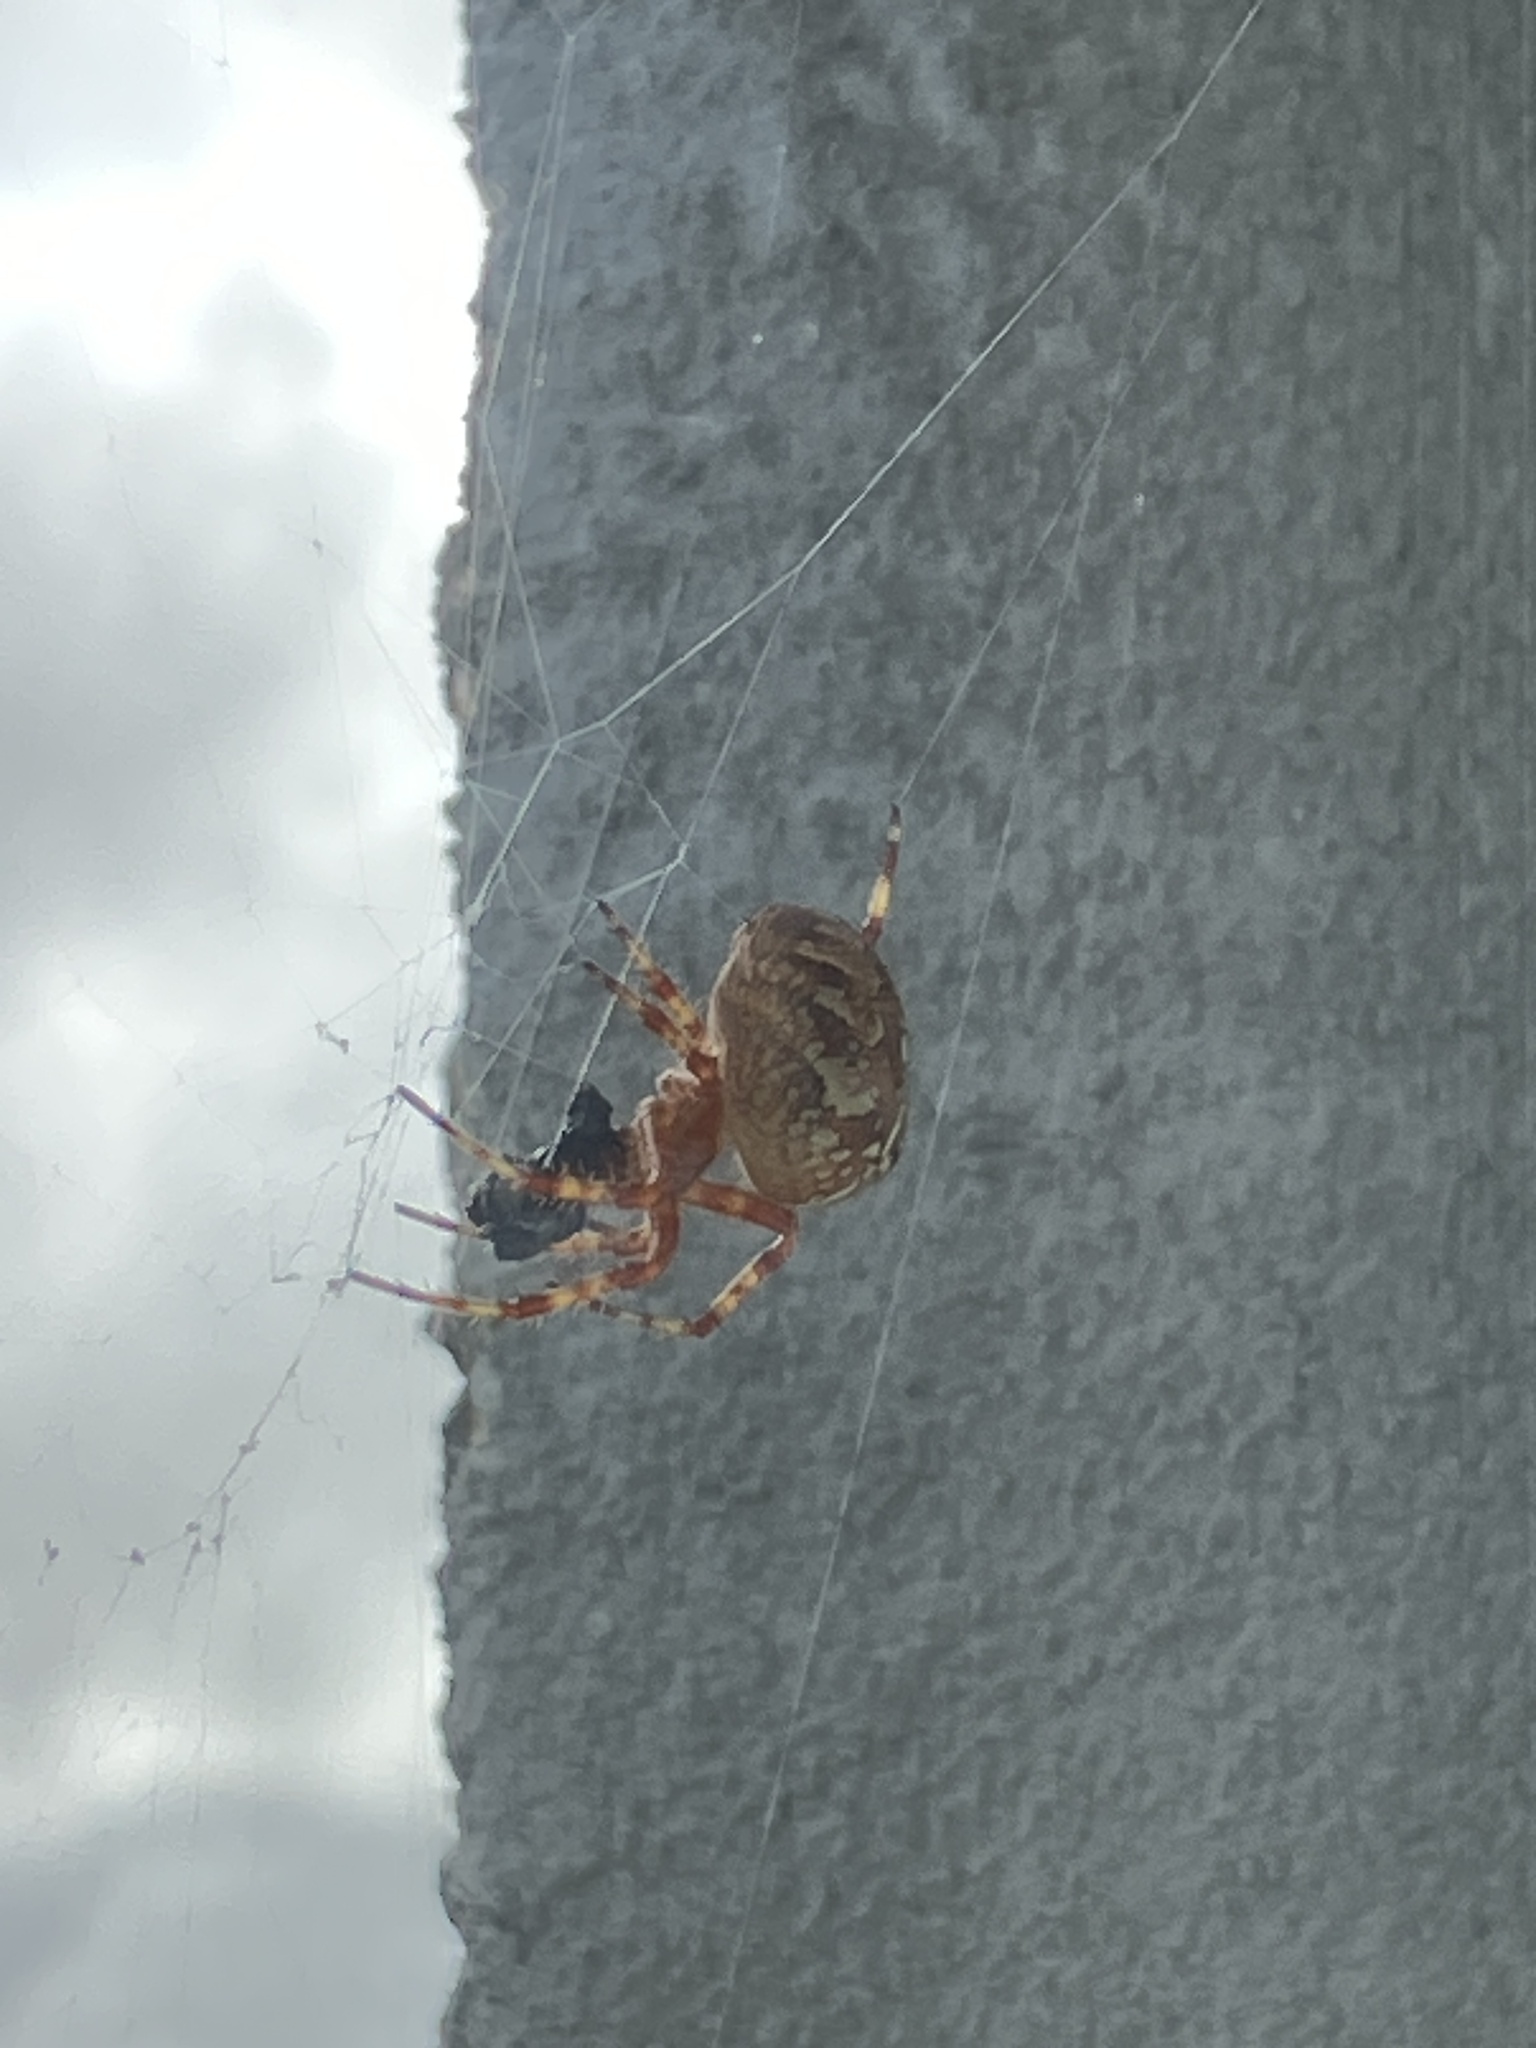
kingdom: Animalia
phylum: Arthropoda
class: Arachnida
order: Araneae
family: Araneidae
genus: Araneus
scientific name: Araneus diadematus
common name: Cross orbweaver
